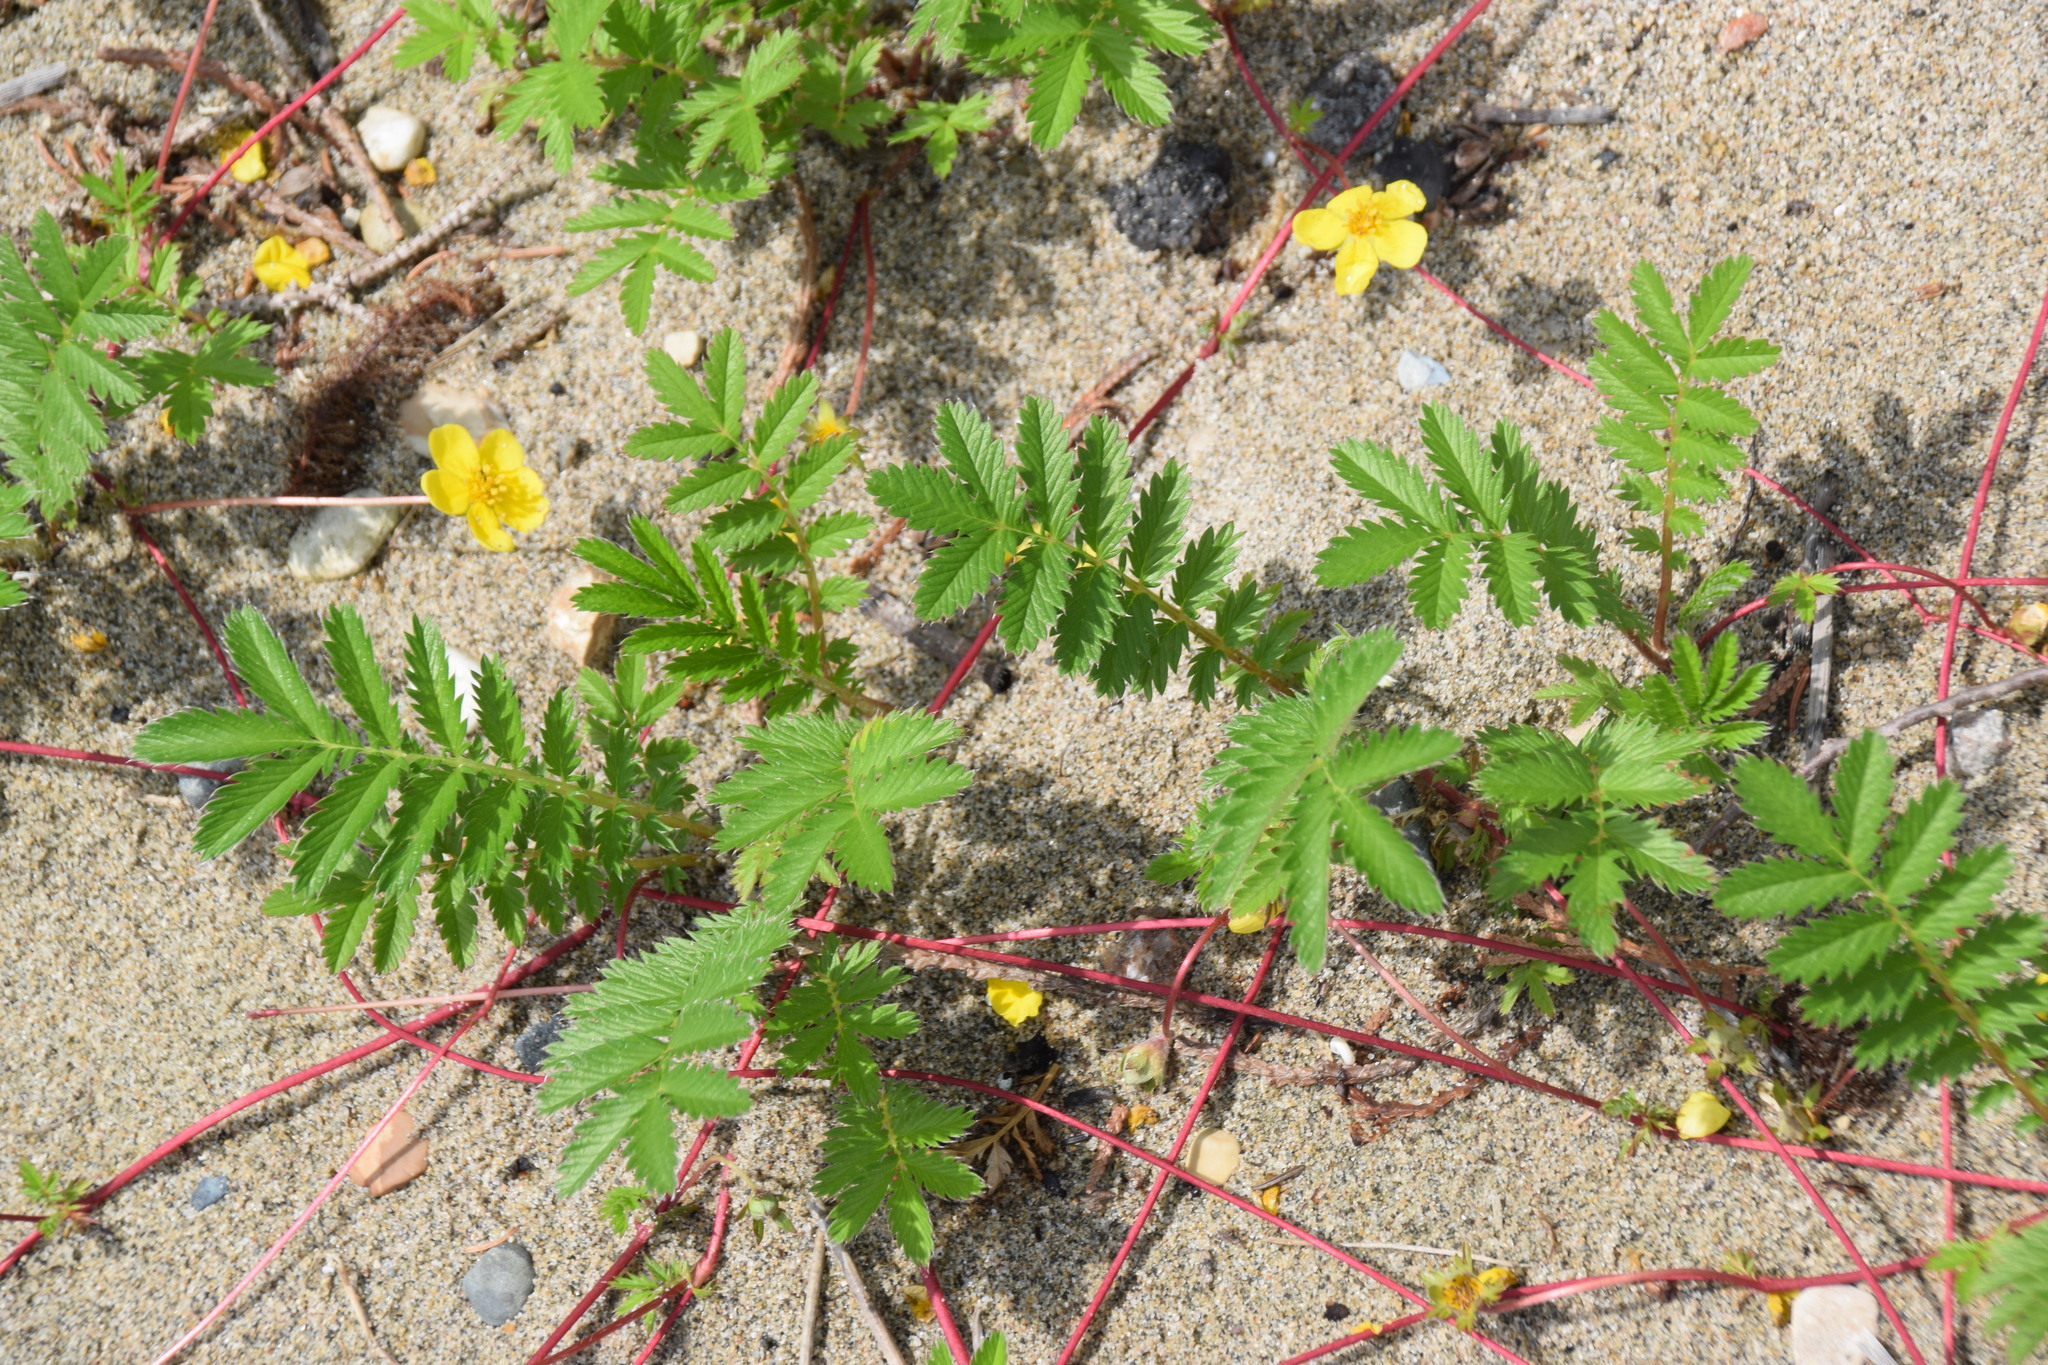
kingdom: Plantae
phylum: Tracheophyta
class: Magnoliopsida
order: Rosales
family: Rosaceae
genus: Argentina
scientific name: Argentina anserina
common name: Common silverweed
